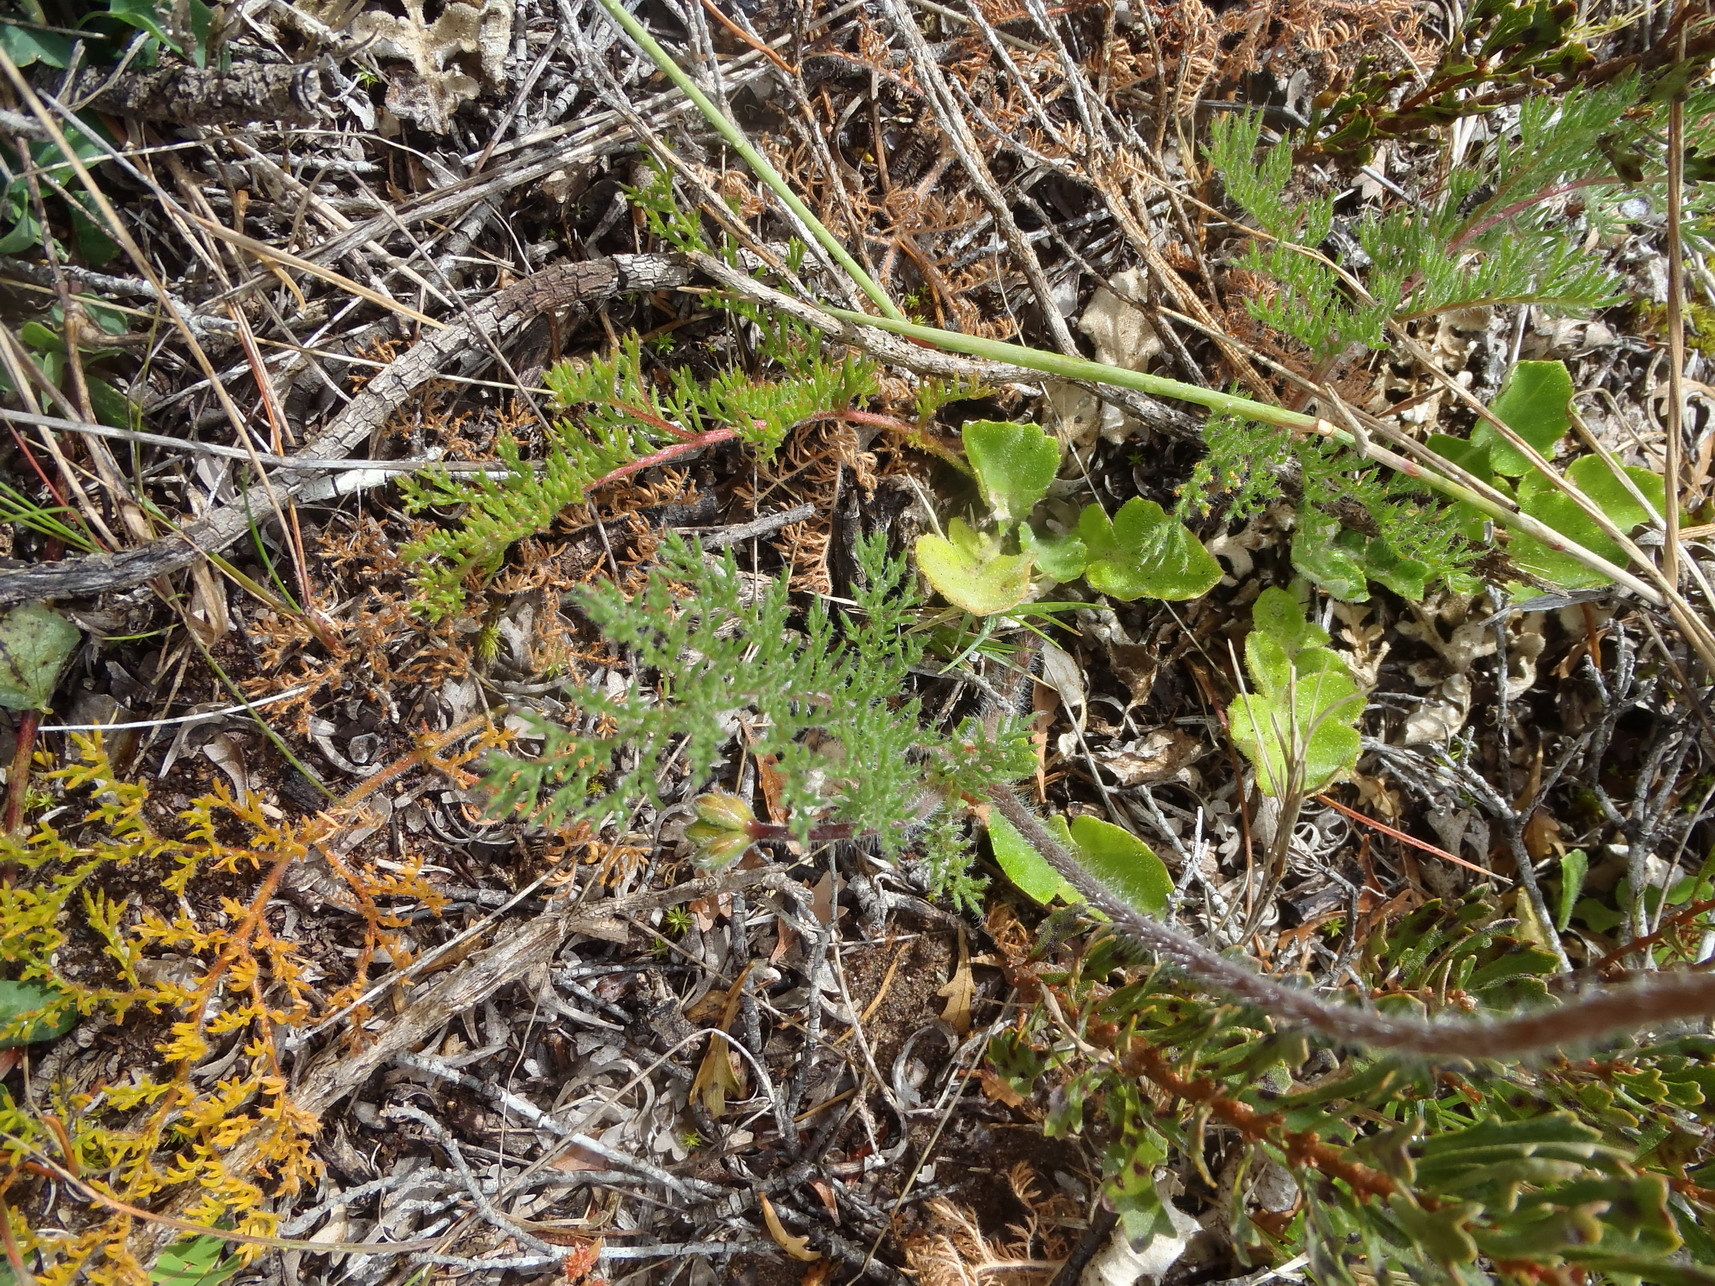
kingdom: Plantae
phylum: Tracheophyta
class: Magnoliopsida
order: Geraniales
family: Geraniaceae
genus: Pelargonium
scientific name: Pelargonium triste
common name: Night-scent pelargonium
